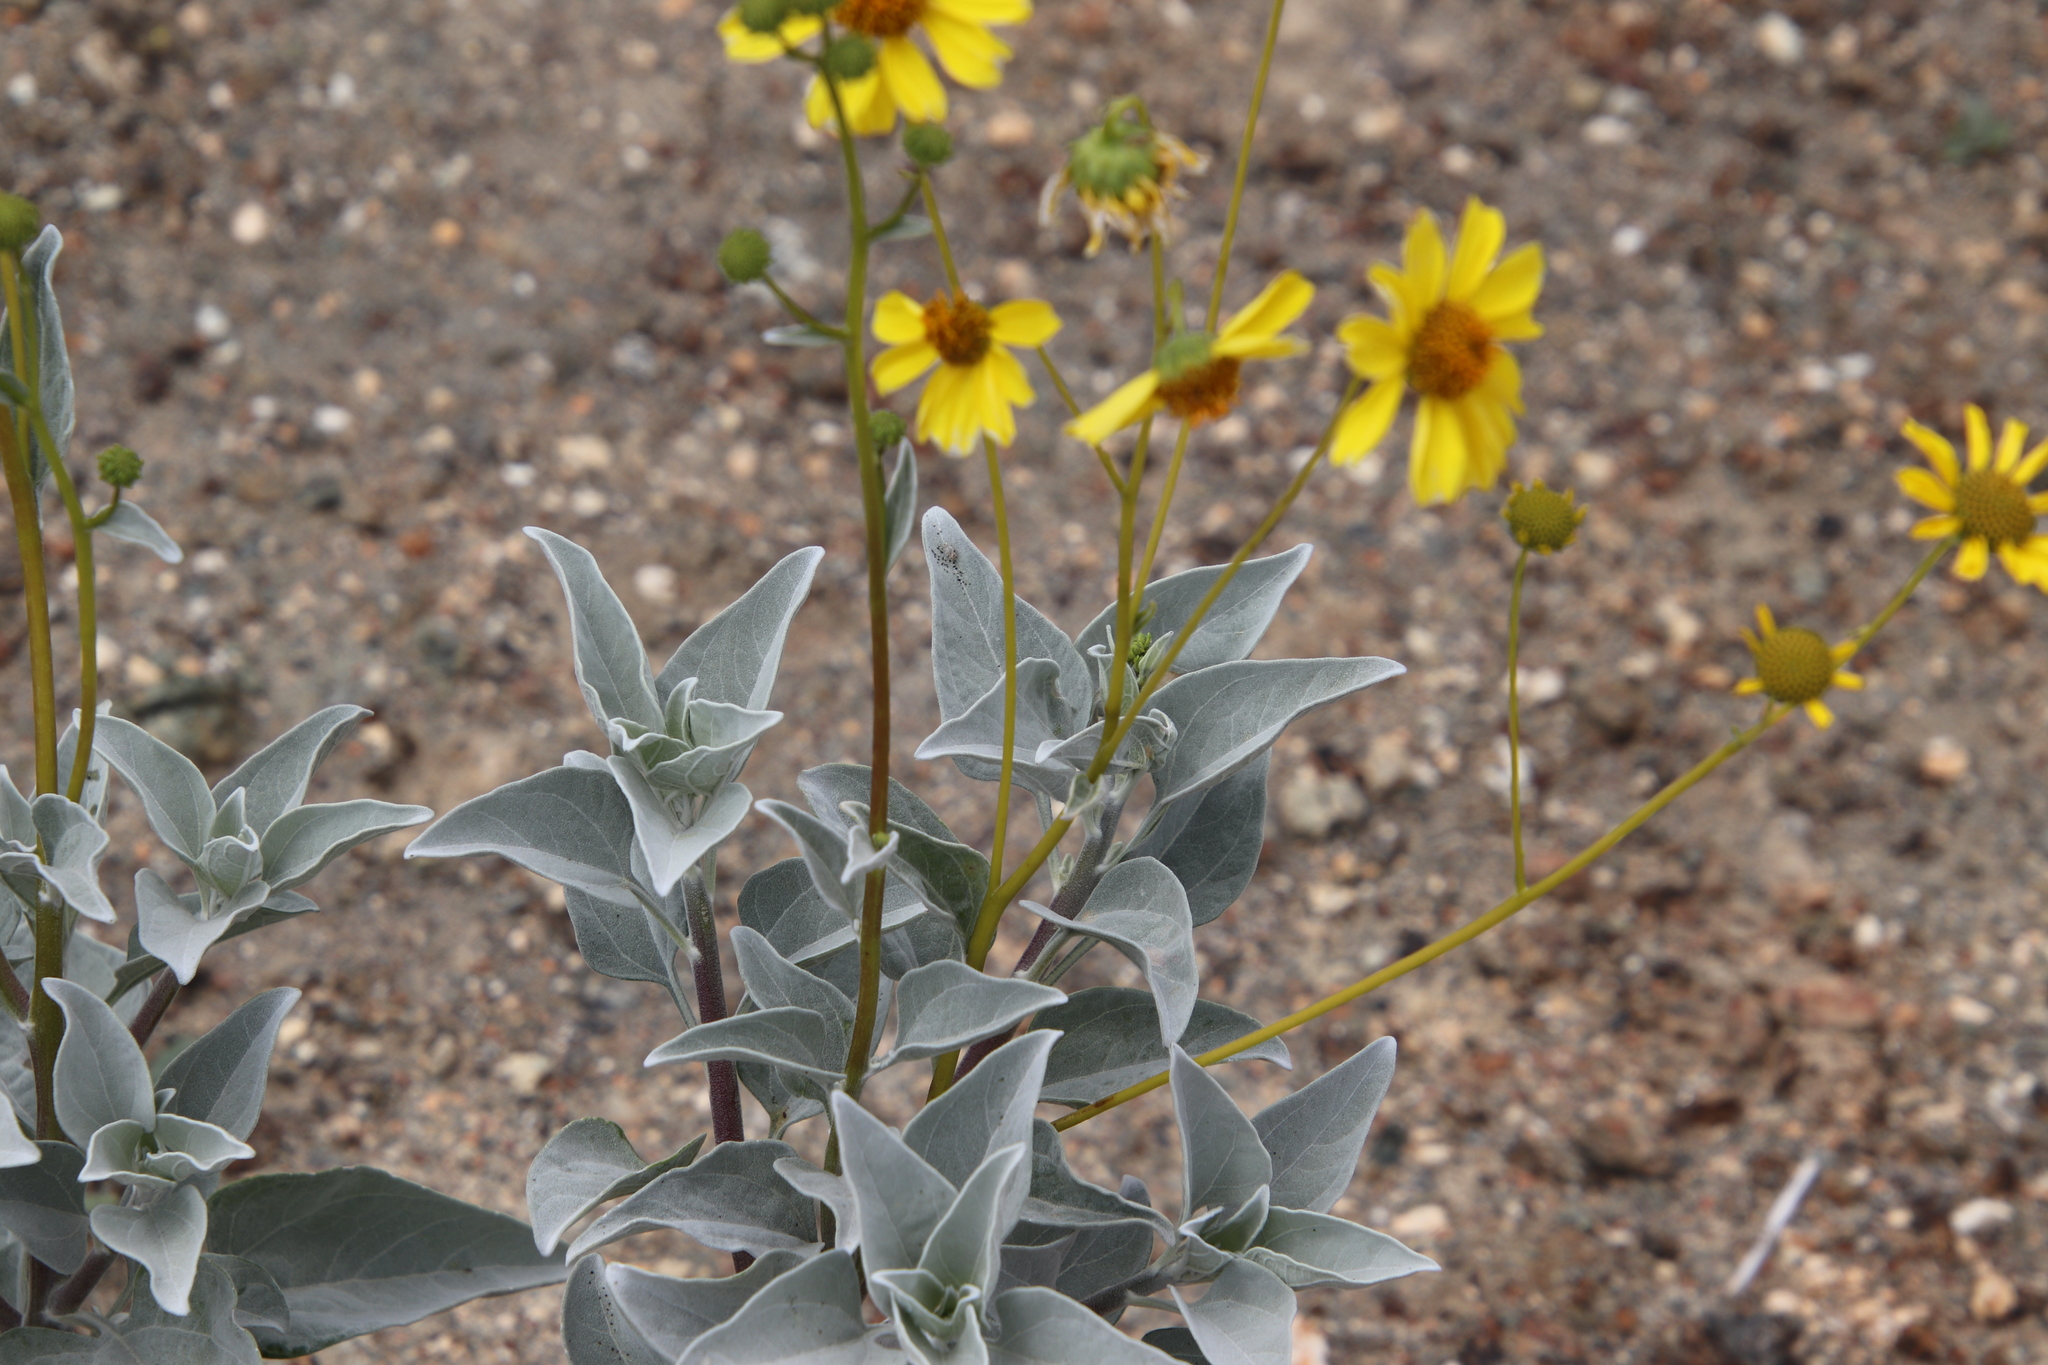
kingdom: Plantae
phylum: Tracheophyta
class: Magnoliopsida
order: Asterales
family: Asteraceae
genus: Encelia
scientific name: Encelia farinosa
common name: Brittlebush
